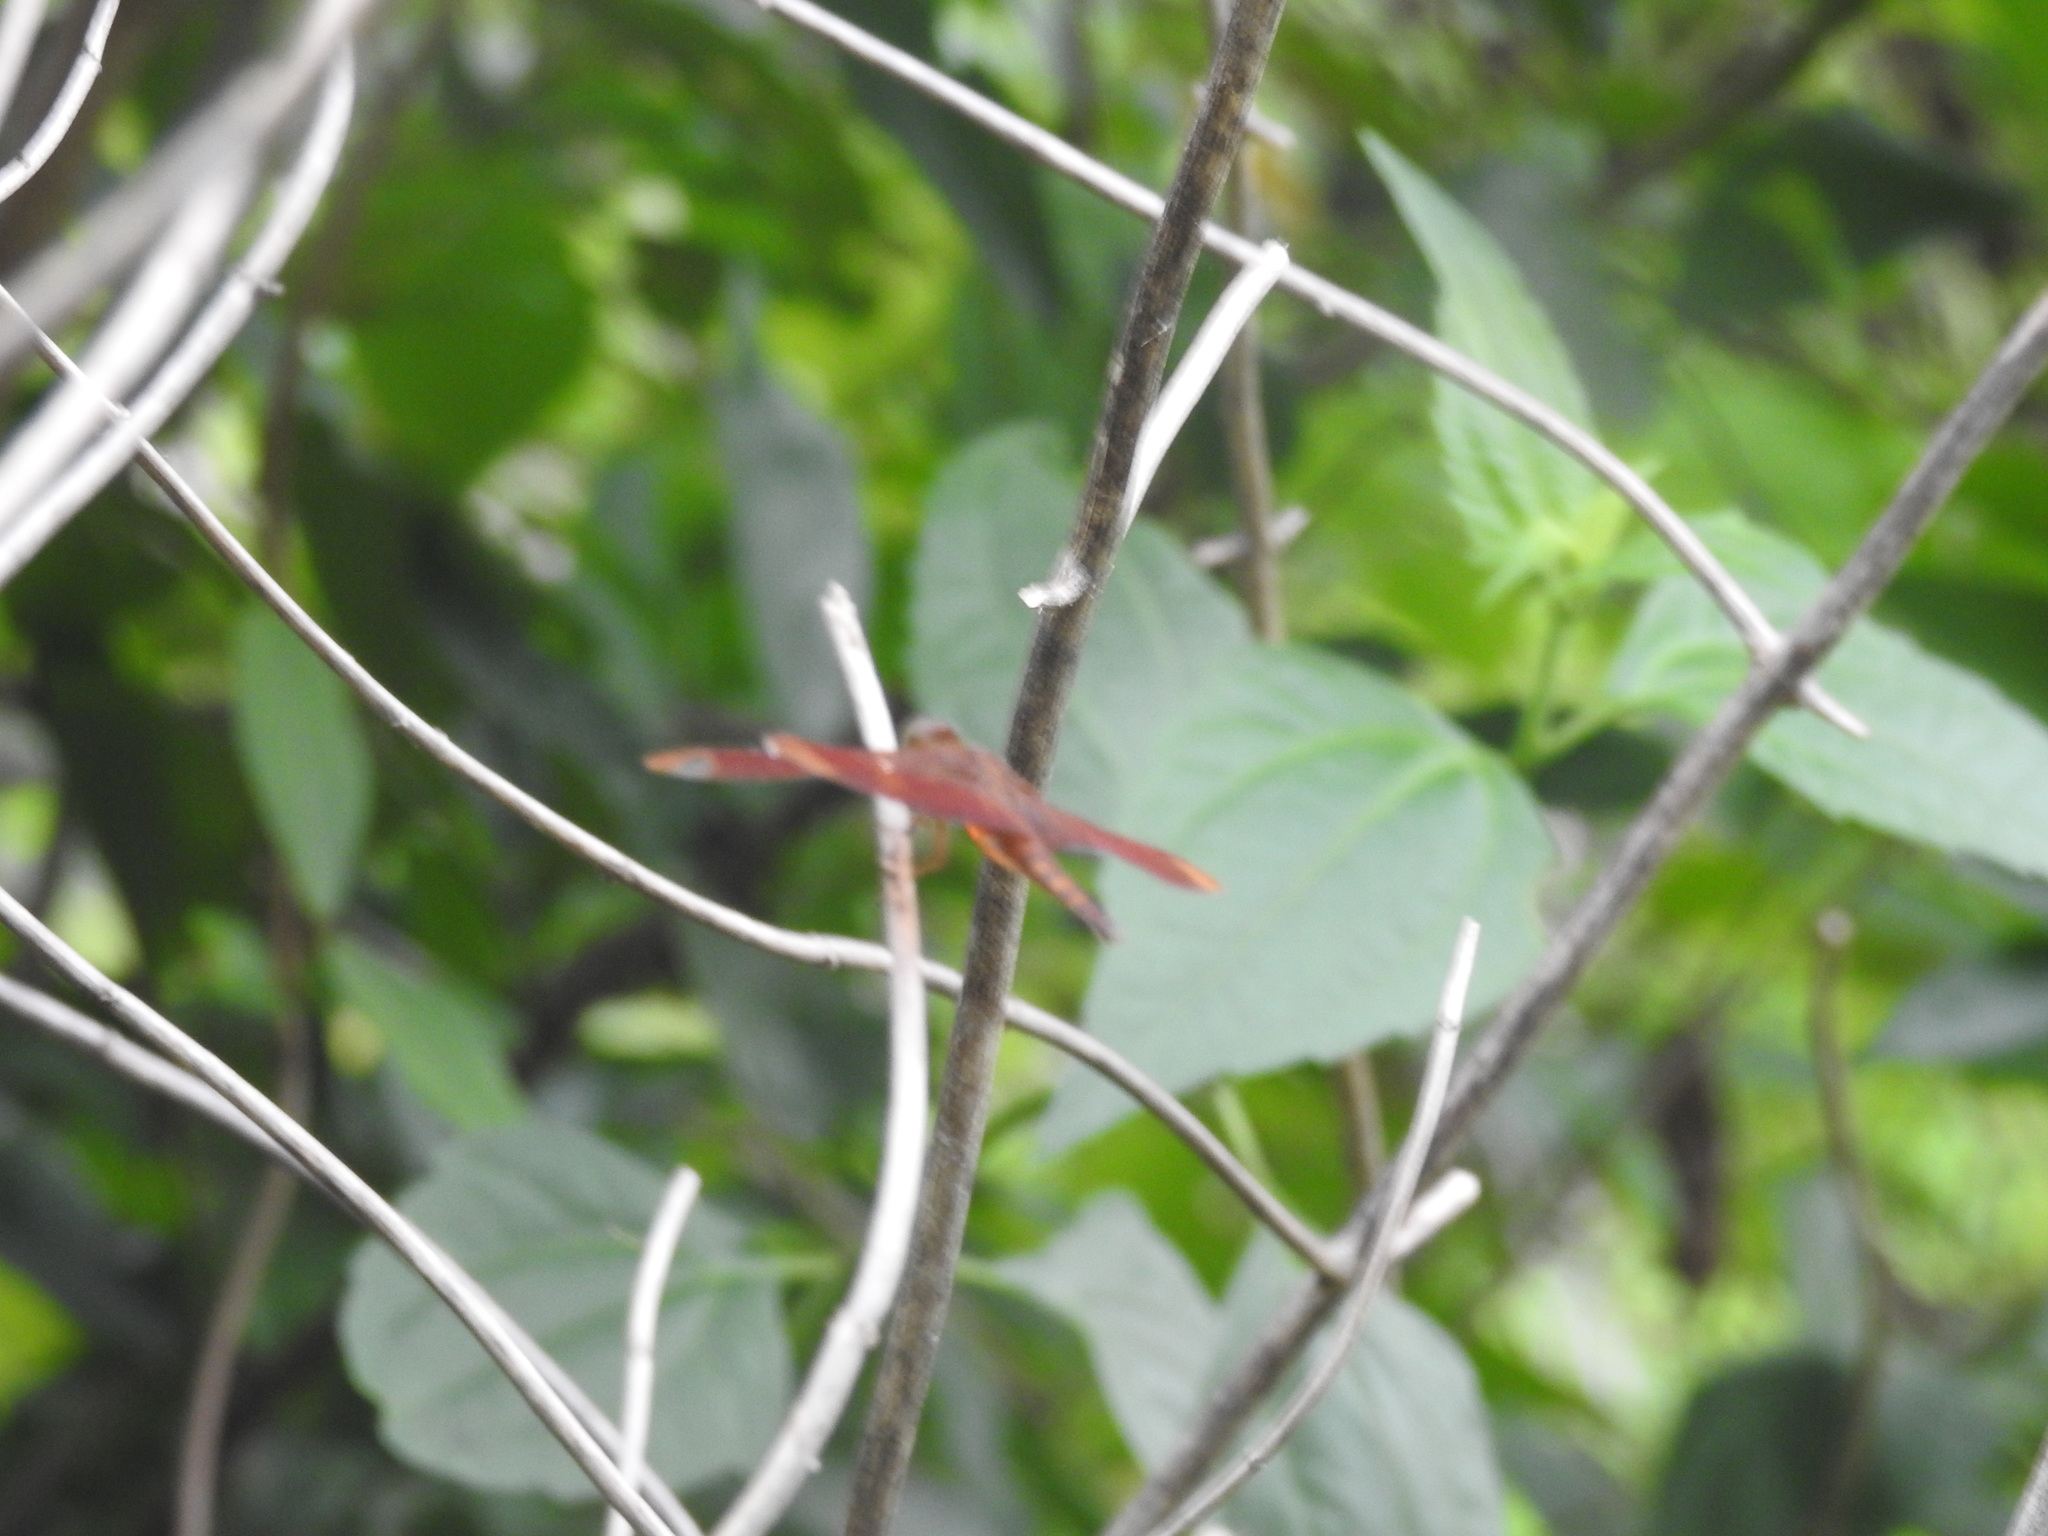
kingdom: Animalia
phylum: Arthropoda
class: Insecta
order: Odonata
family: Libellulidae
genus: Neurothemis
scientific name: Neurothemis fulvia
